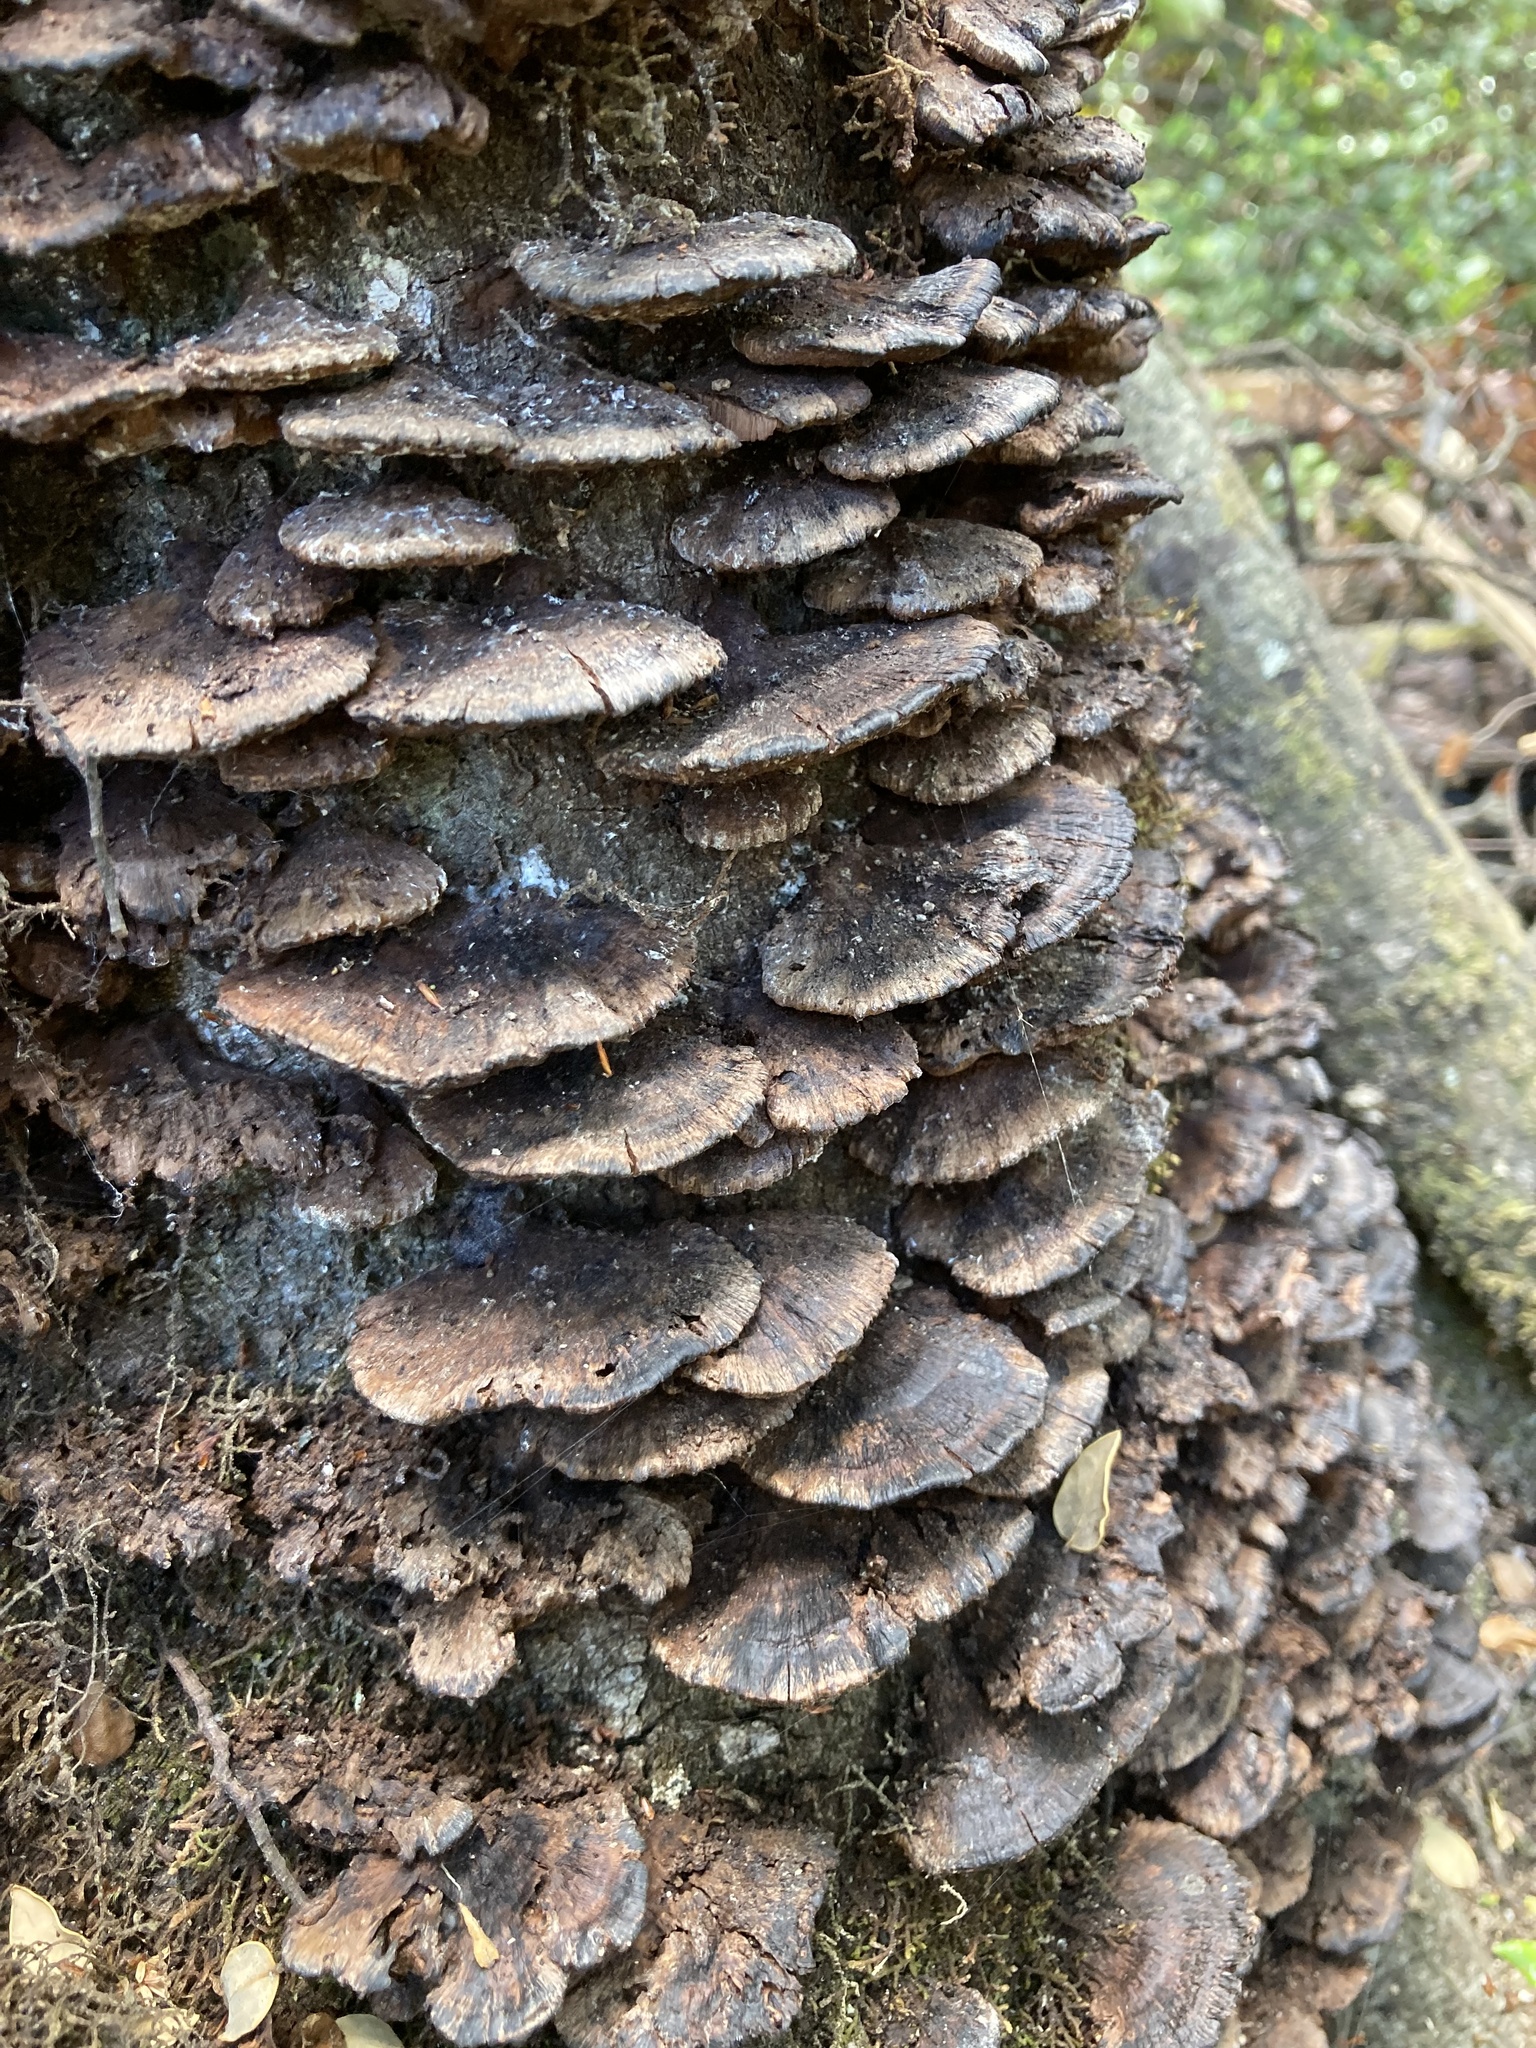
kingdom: Fungi
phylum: Basidiomycota
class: Agaricomycetes
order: Hymenochaetales
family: Hymenochaetaceae
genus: Nothonotus
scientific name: Nothonotus nothofagi
